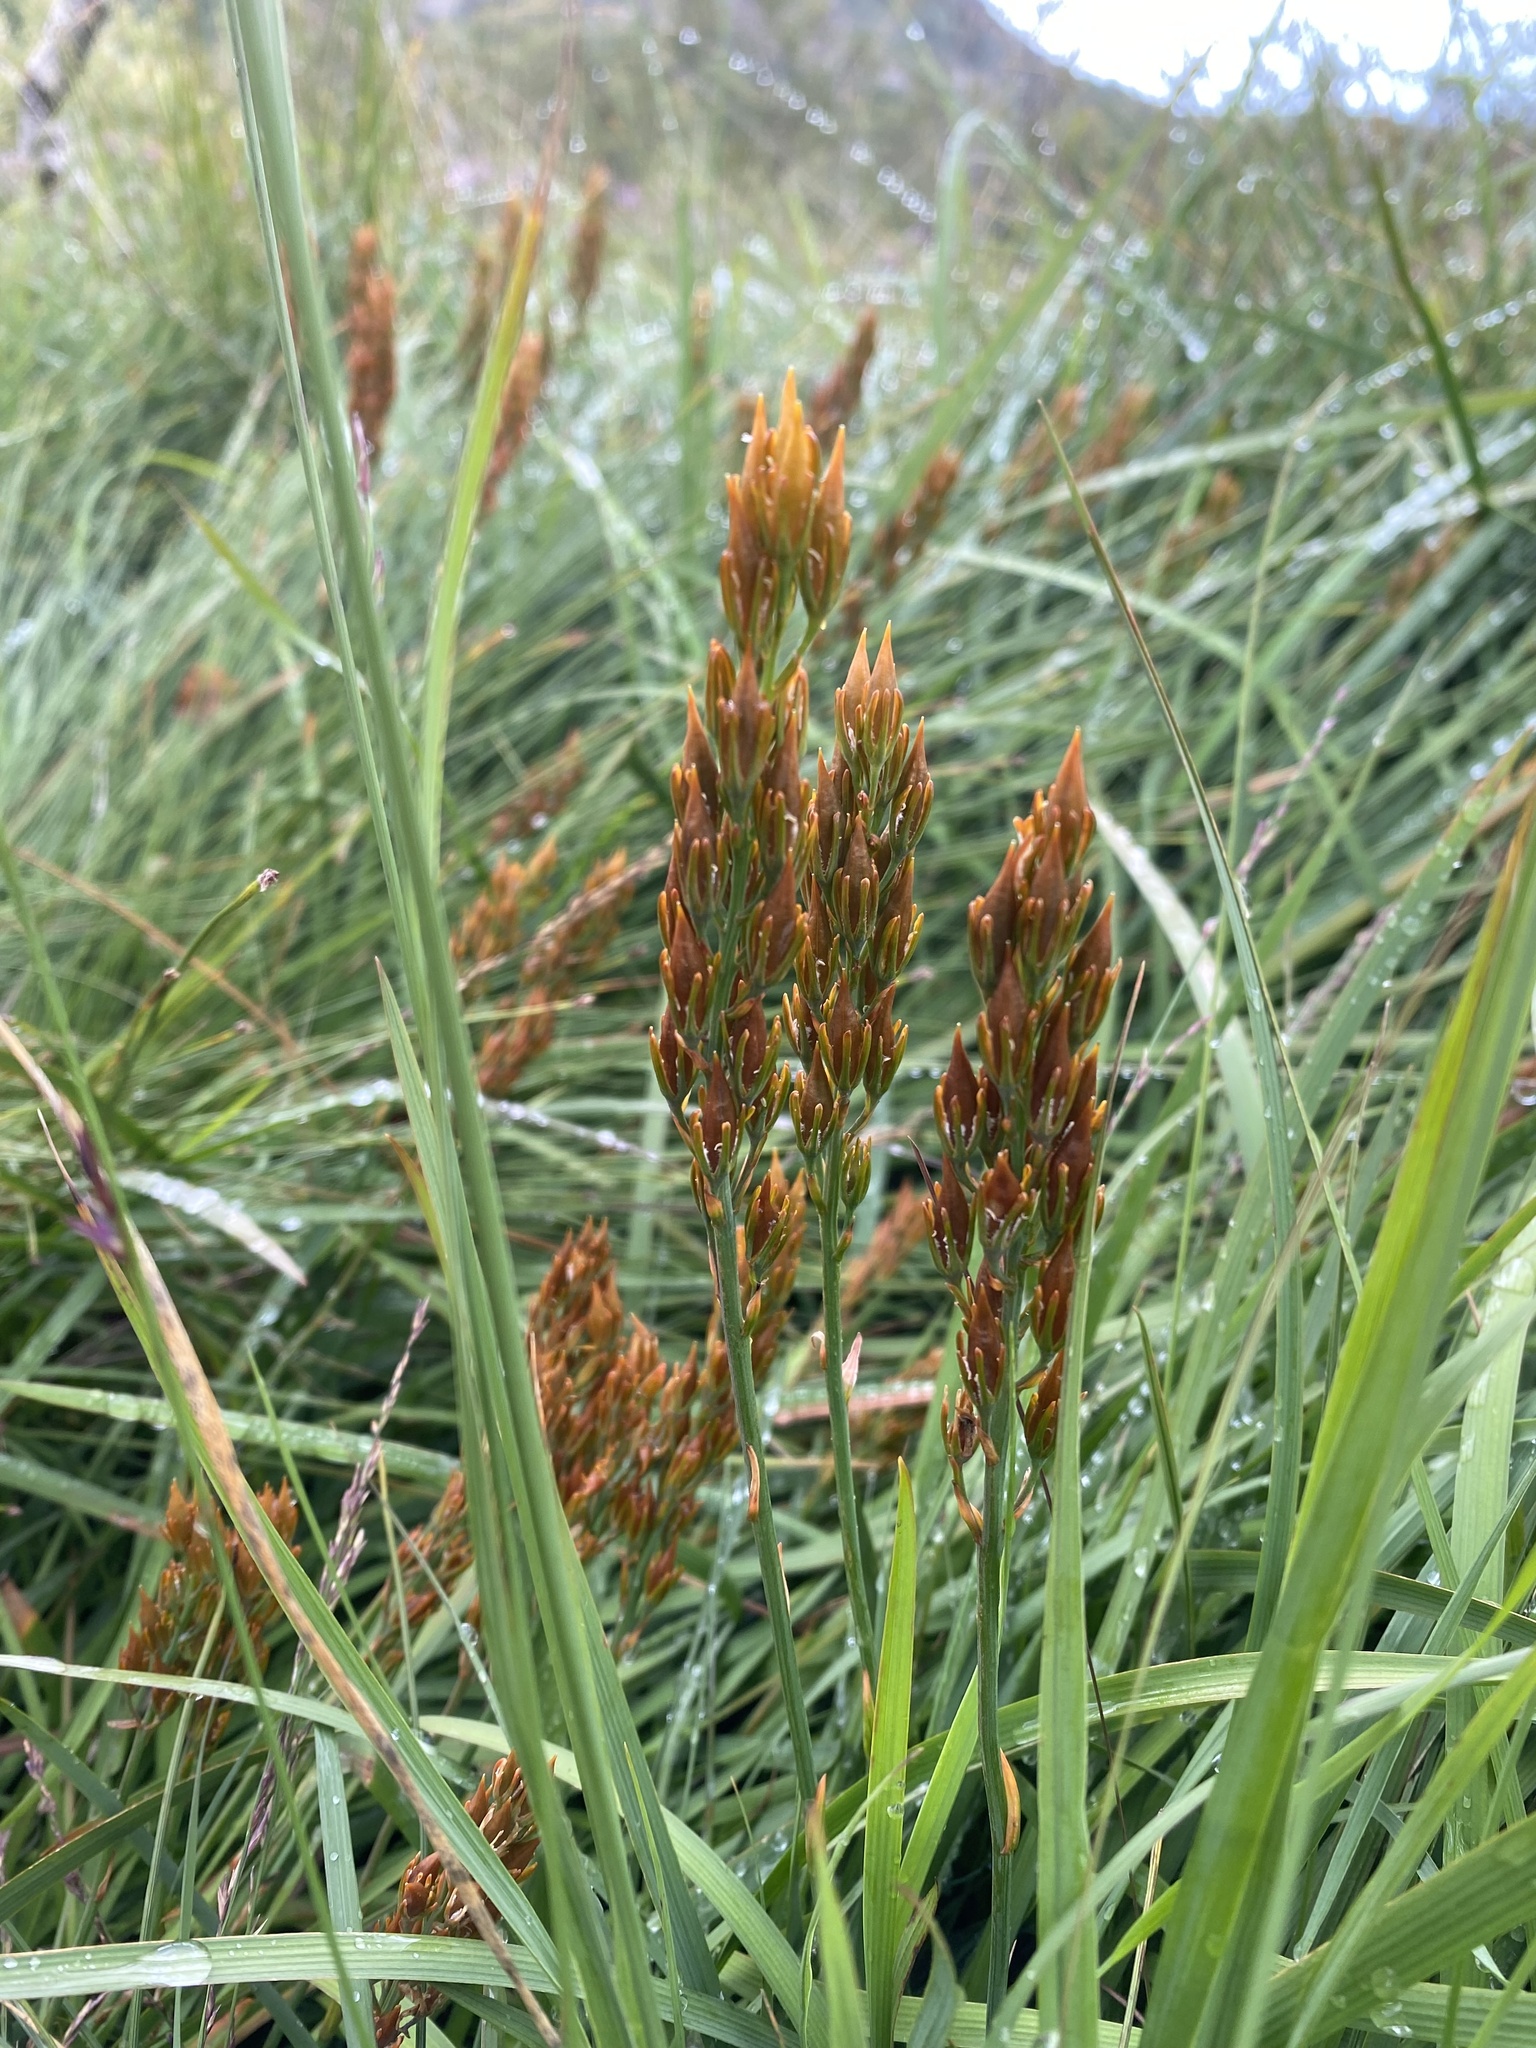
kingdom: Plantae
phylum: Tracheophyta
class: Liliopsida
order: Dioscoreales
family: Nartheciaceae
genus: Narthecium
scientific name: Narthecium ossifragum
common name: Bog asphodel
